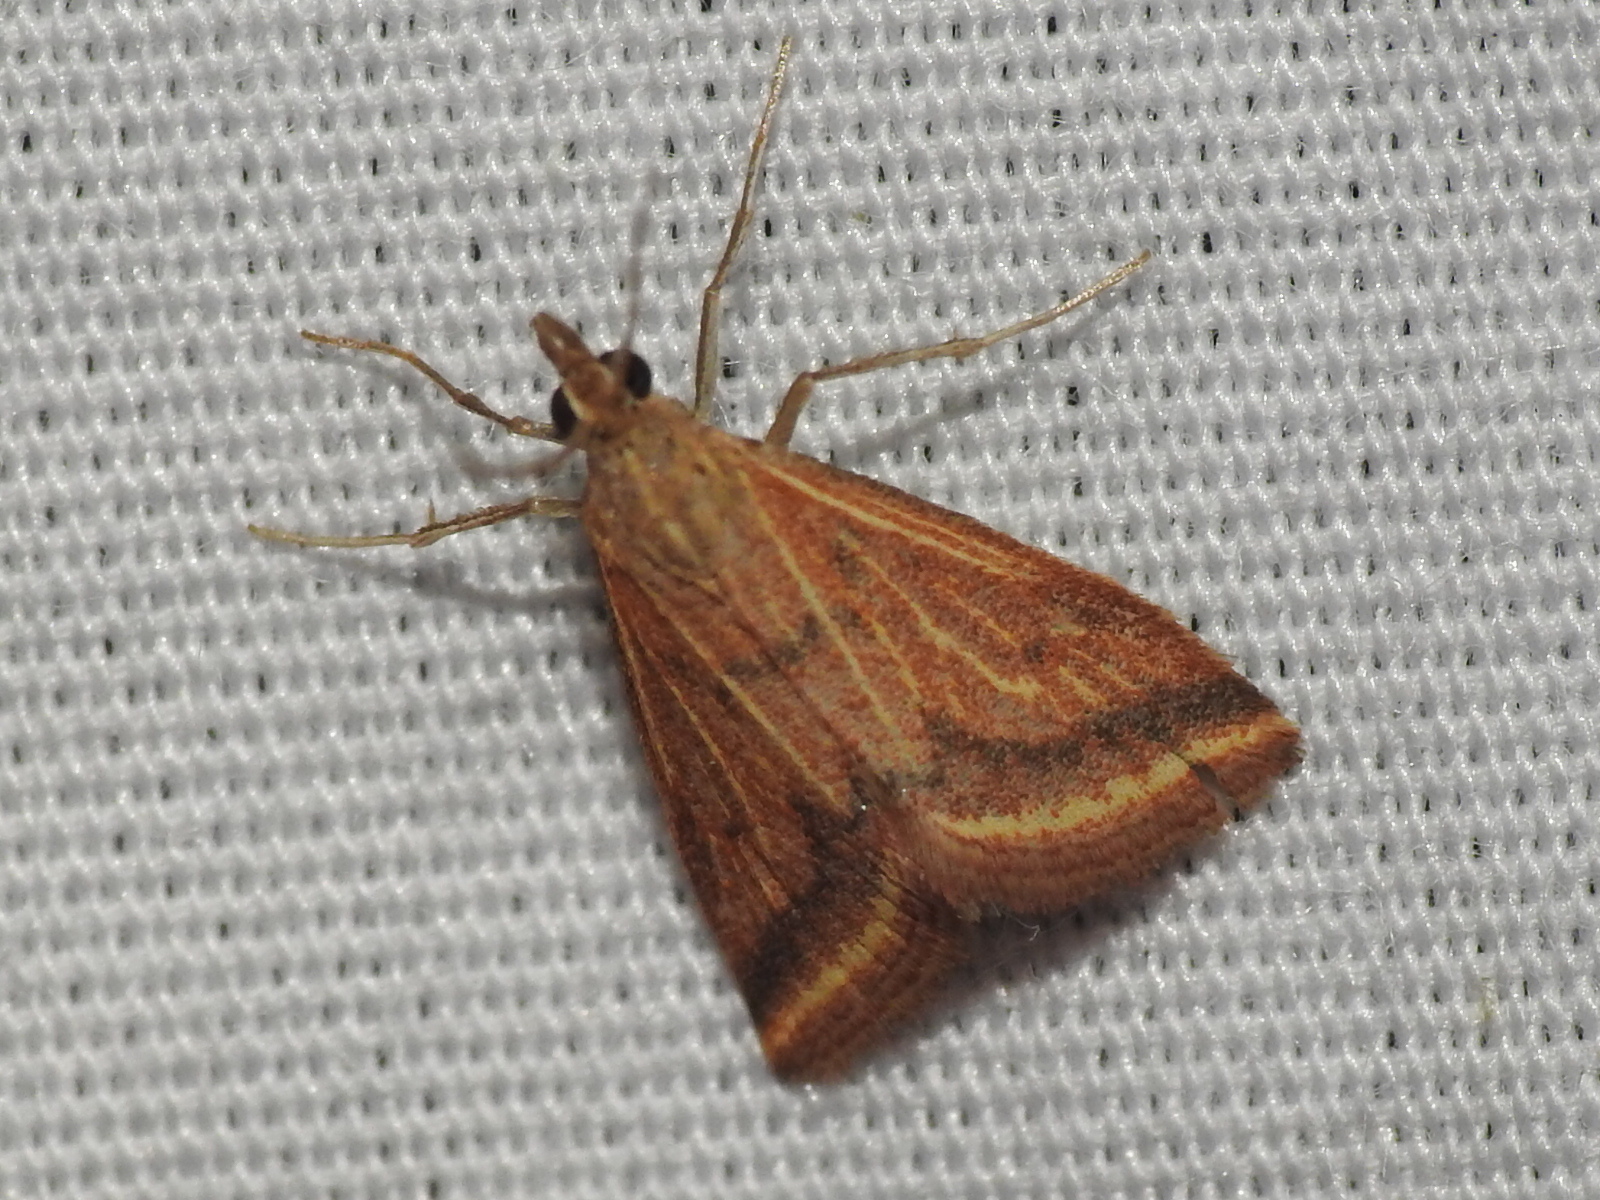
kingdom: Animalia
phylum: Arthropoda
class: Insecta
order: Lepidoptera
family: Crambidae
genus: Microtheoris
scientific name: Microtheoris ophionalis
